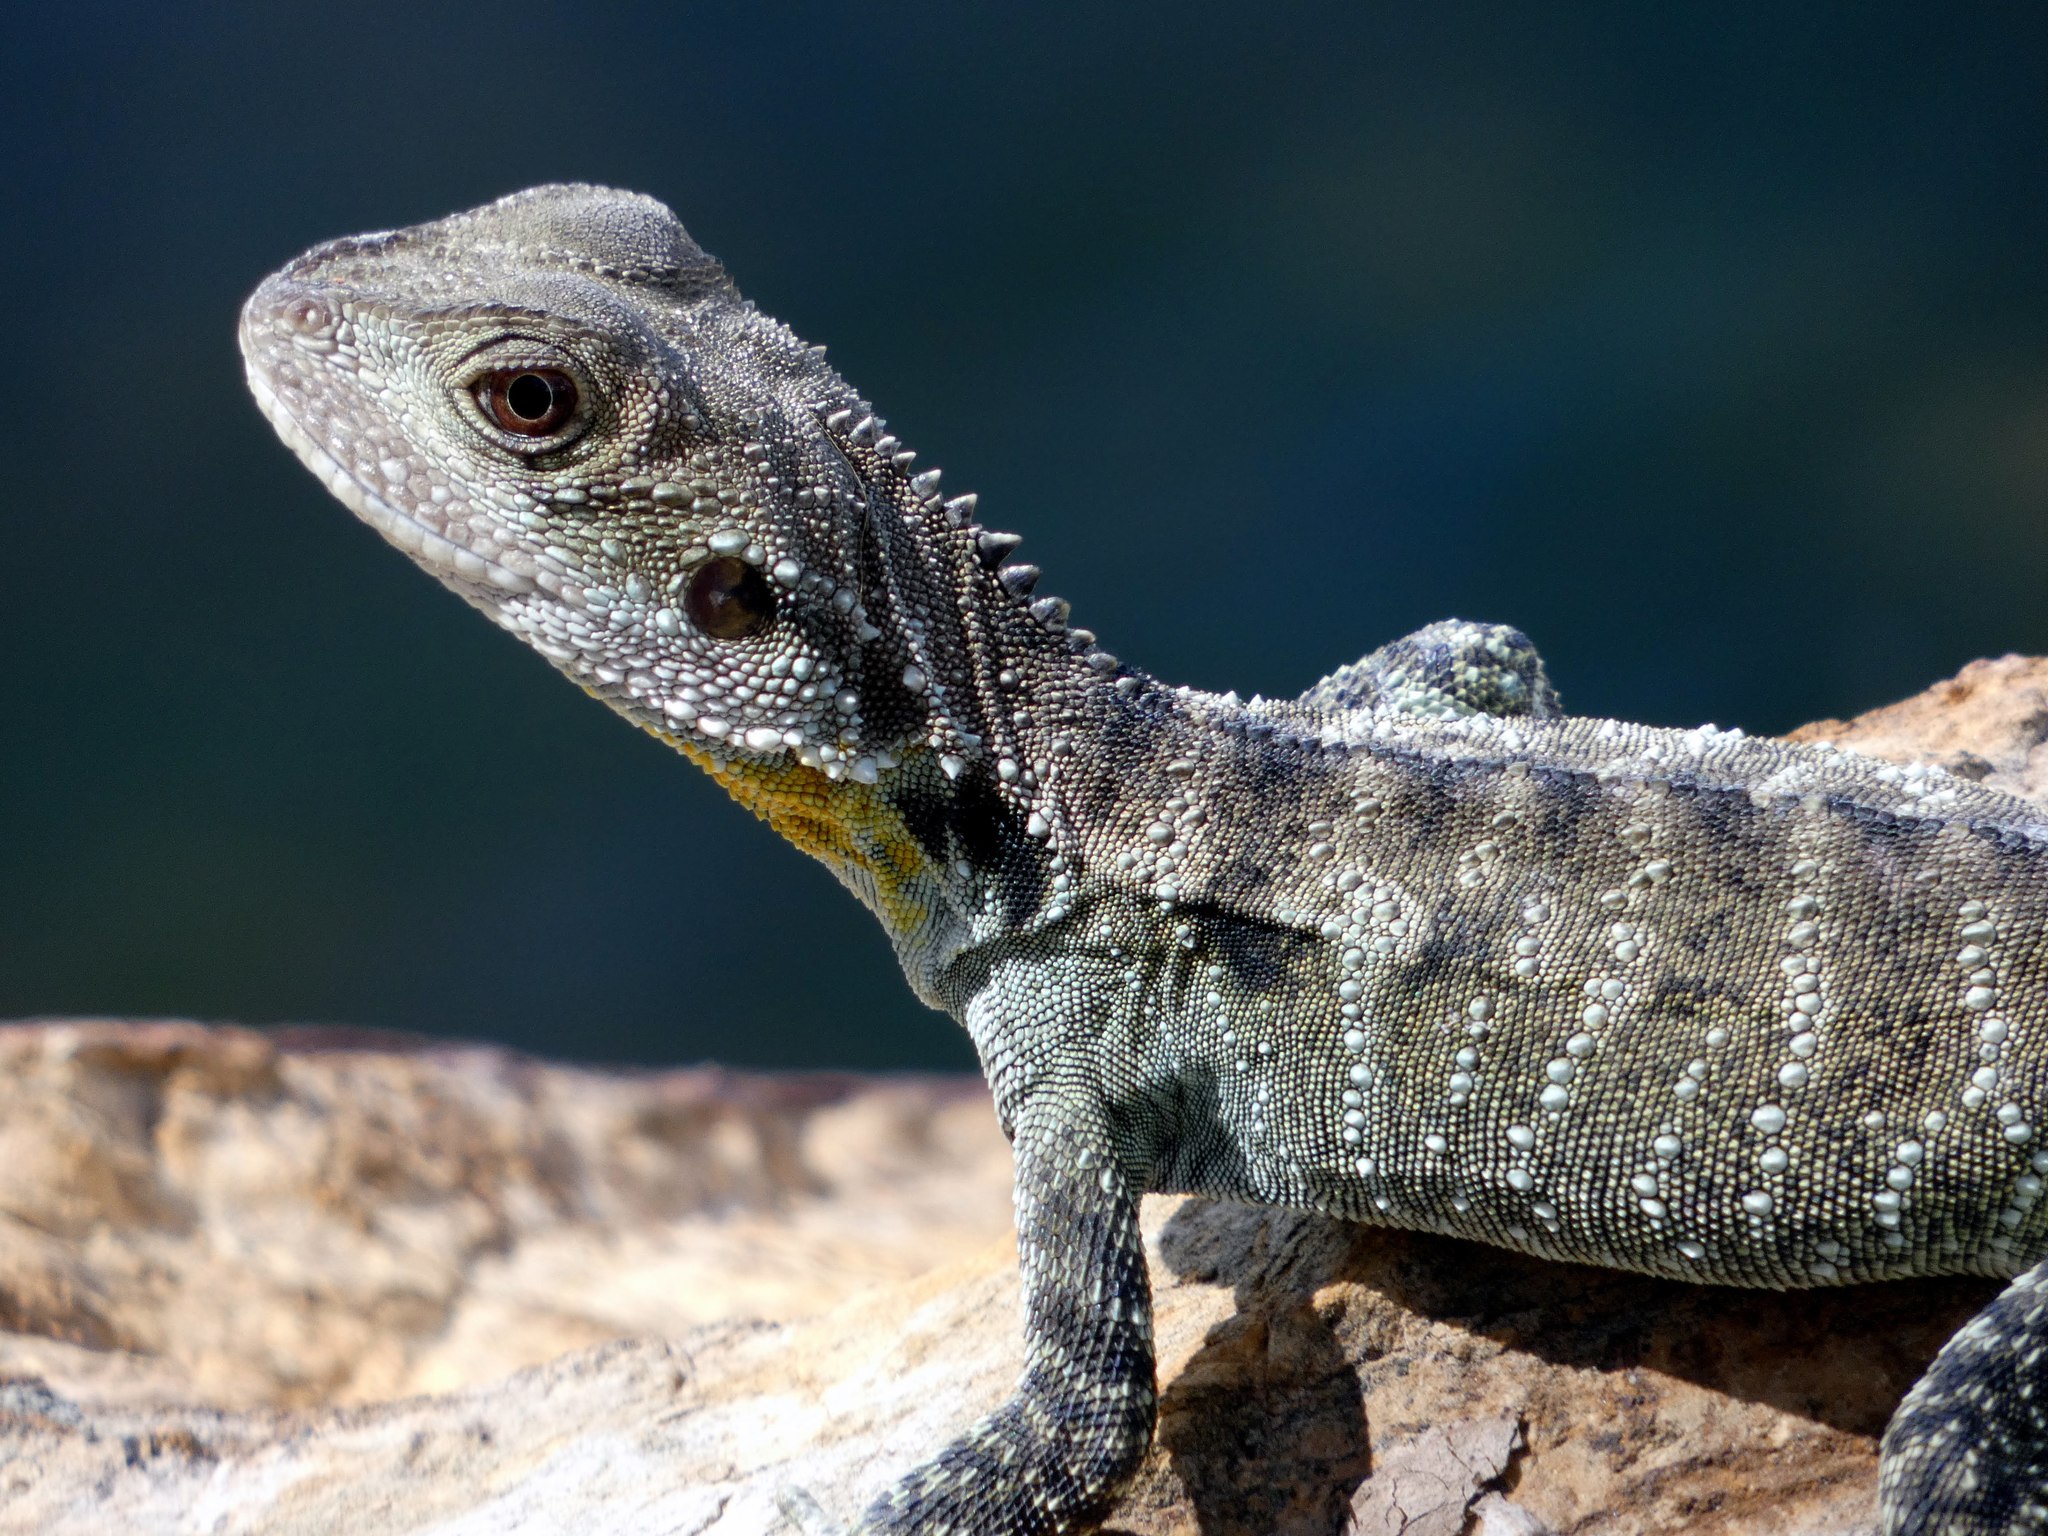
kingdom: Animalia
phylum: Chordata
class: Squamata
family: Agamidae
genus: Intellagama
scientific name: Intellagama lesueurii
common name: Eastern water dragon
